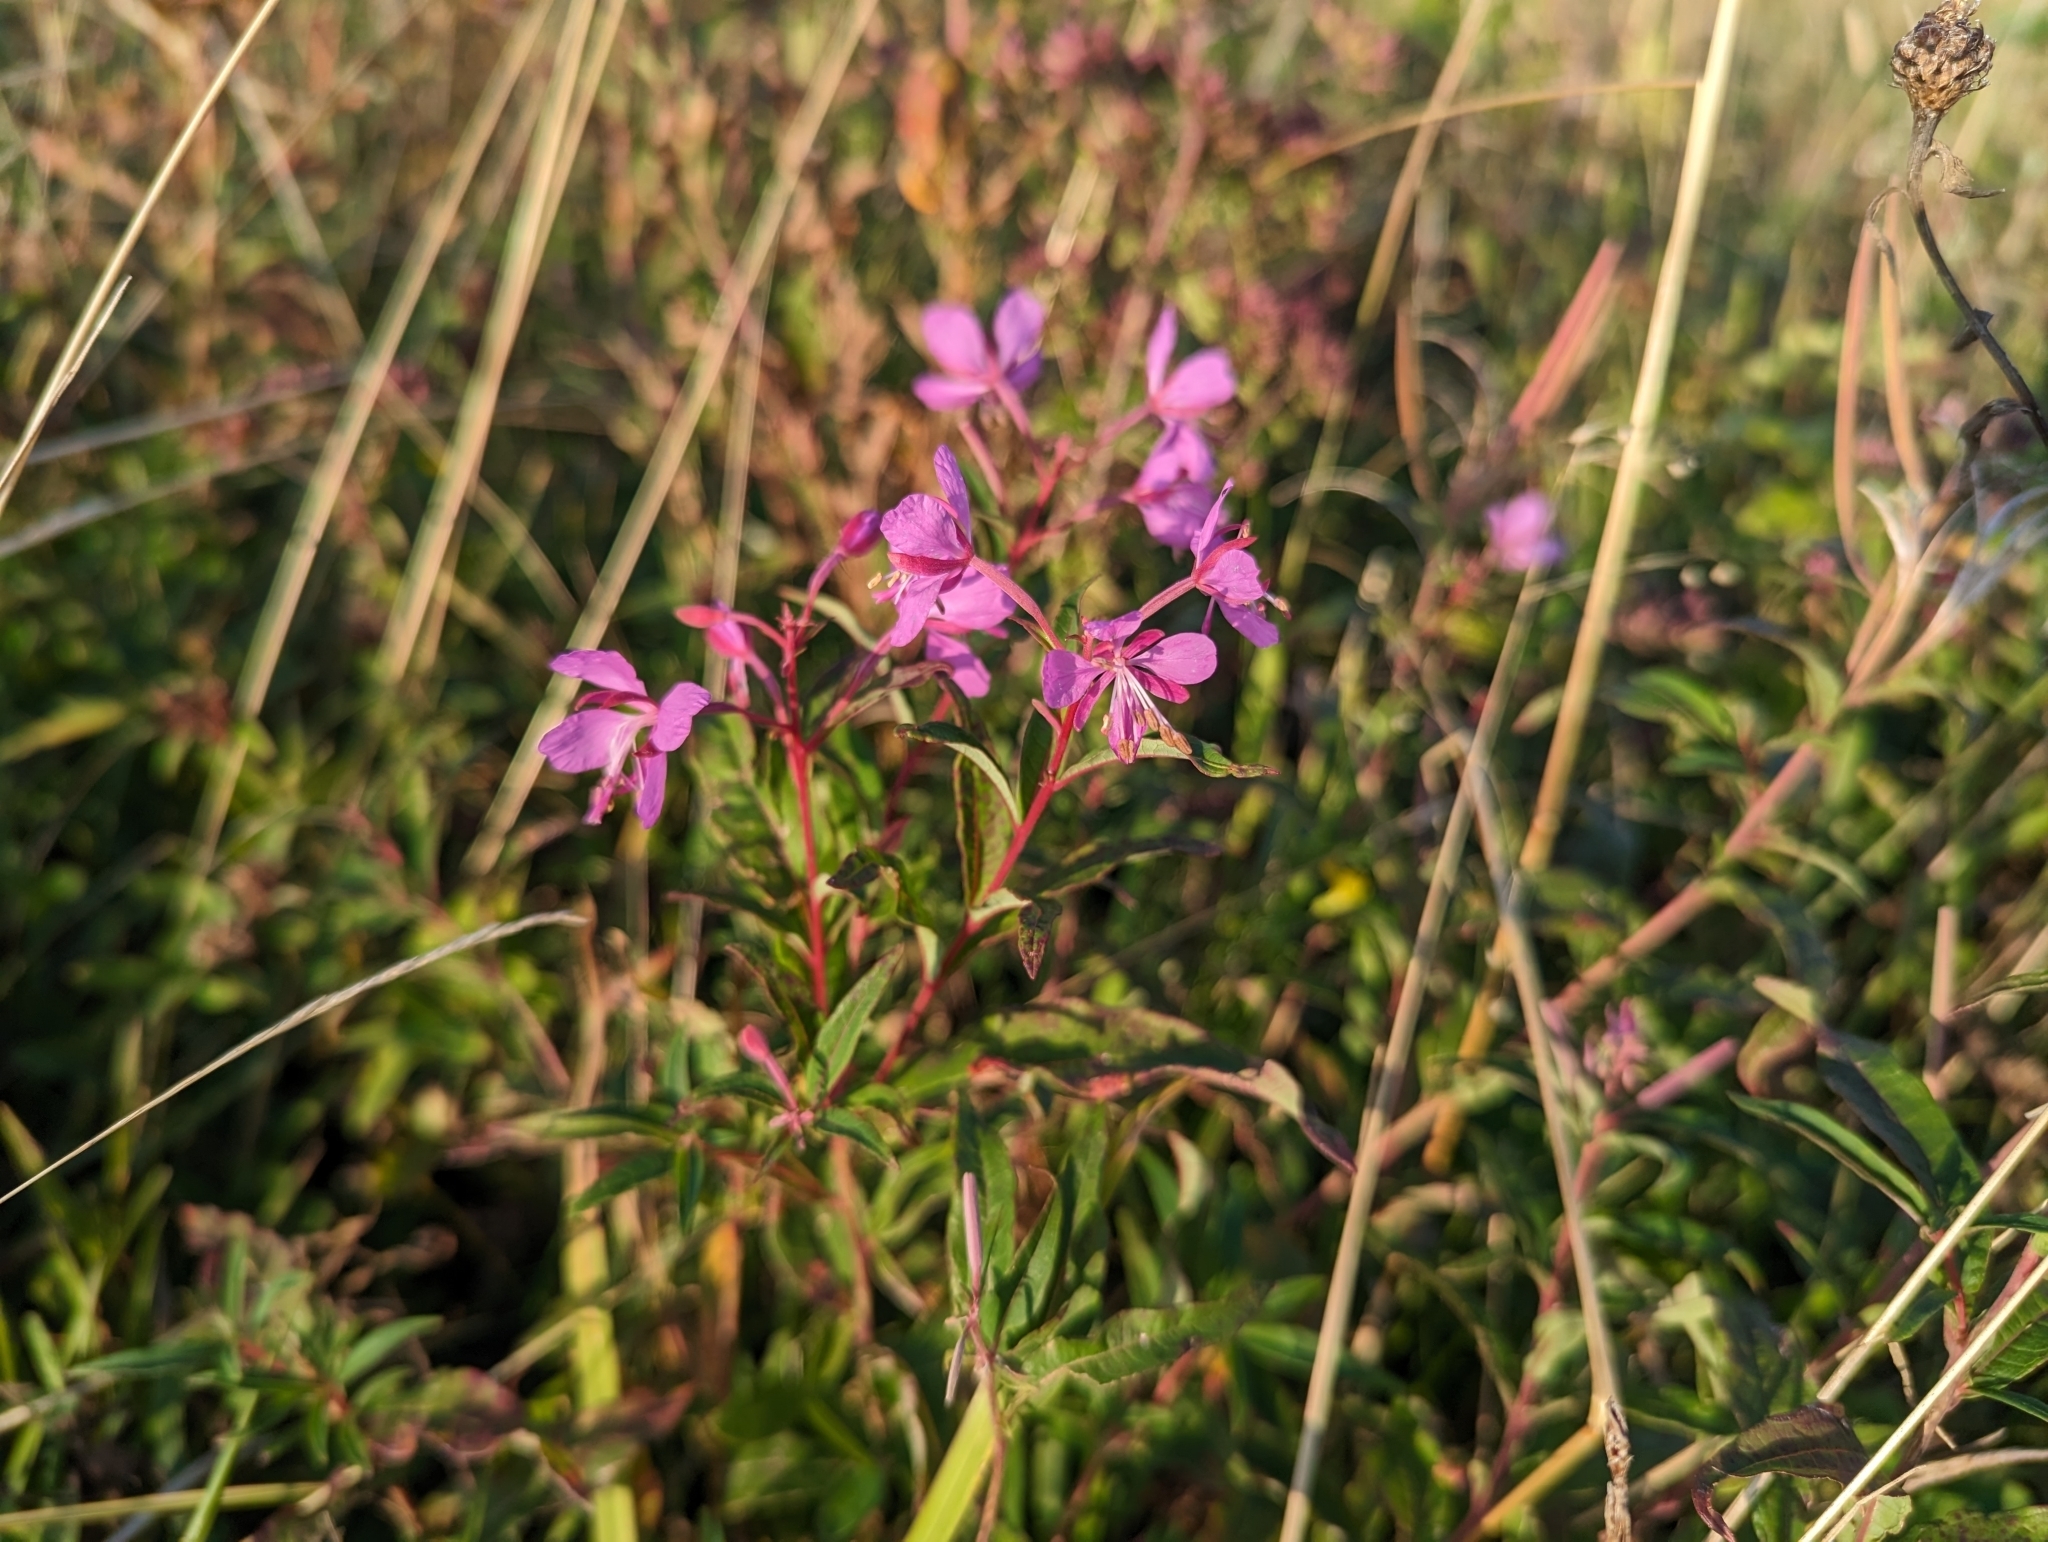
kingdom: Plantae
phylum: Tracheophyta
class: Magnoliopsida
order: Myrtales
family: Onagraceae
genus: Chamaenerion
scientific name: Chamaenerion angustifolium
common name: Fireweed
